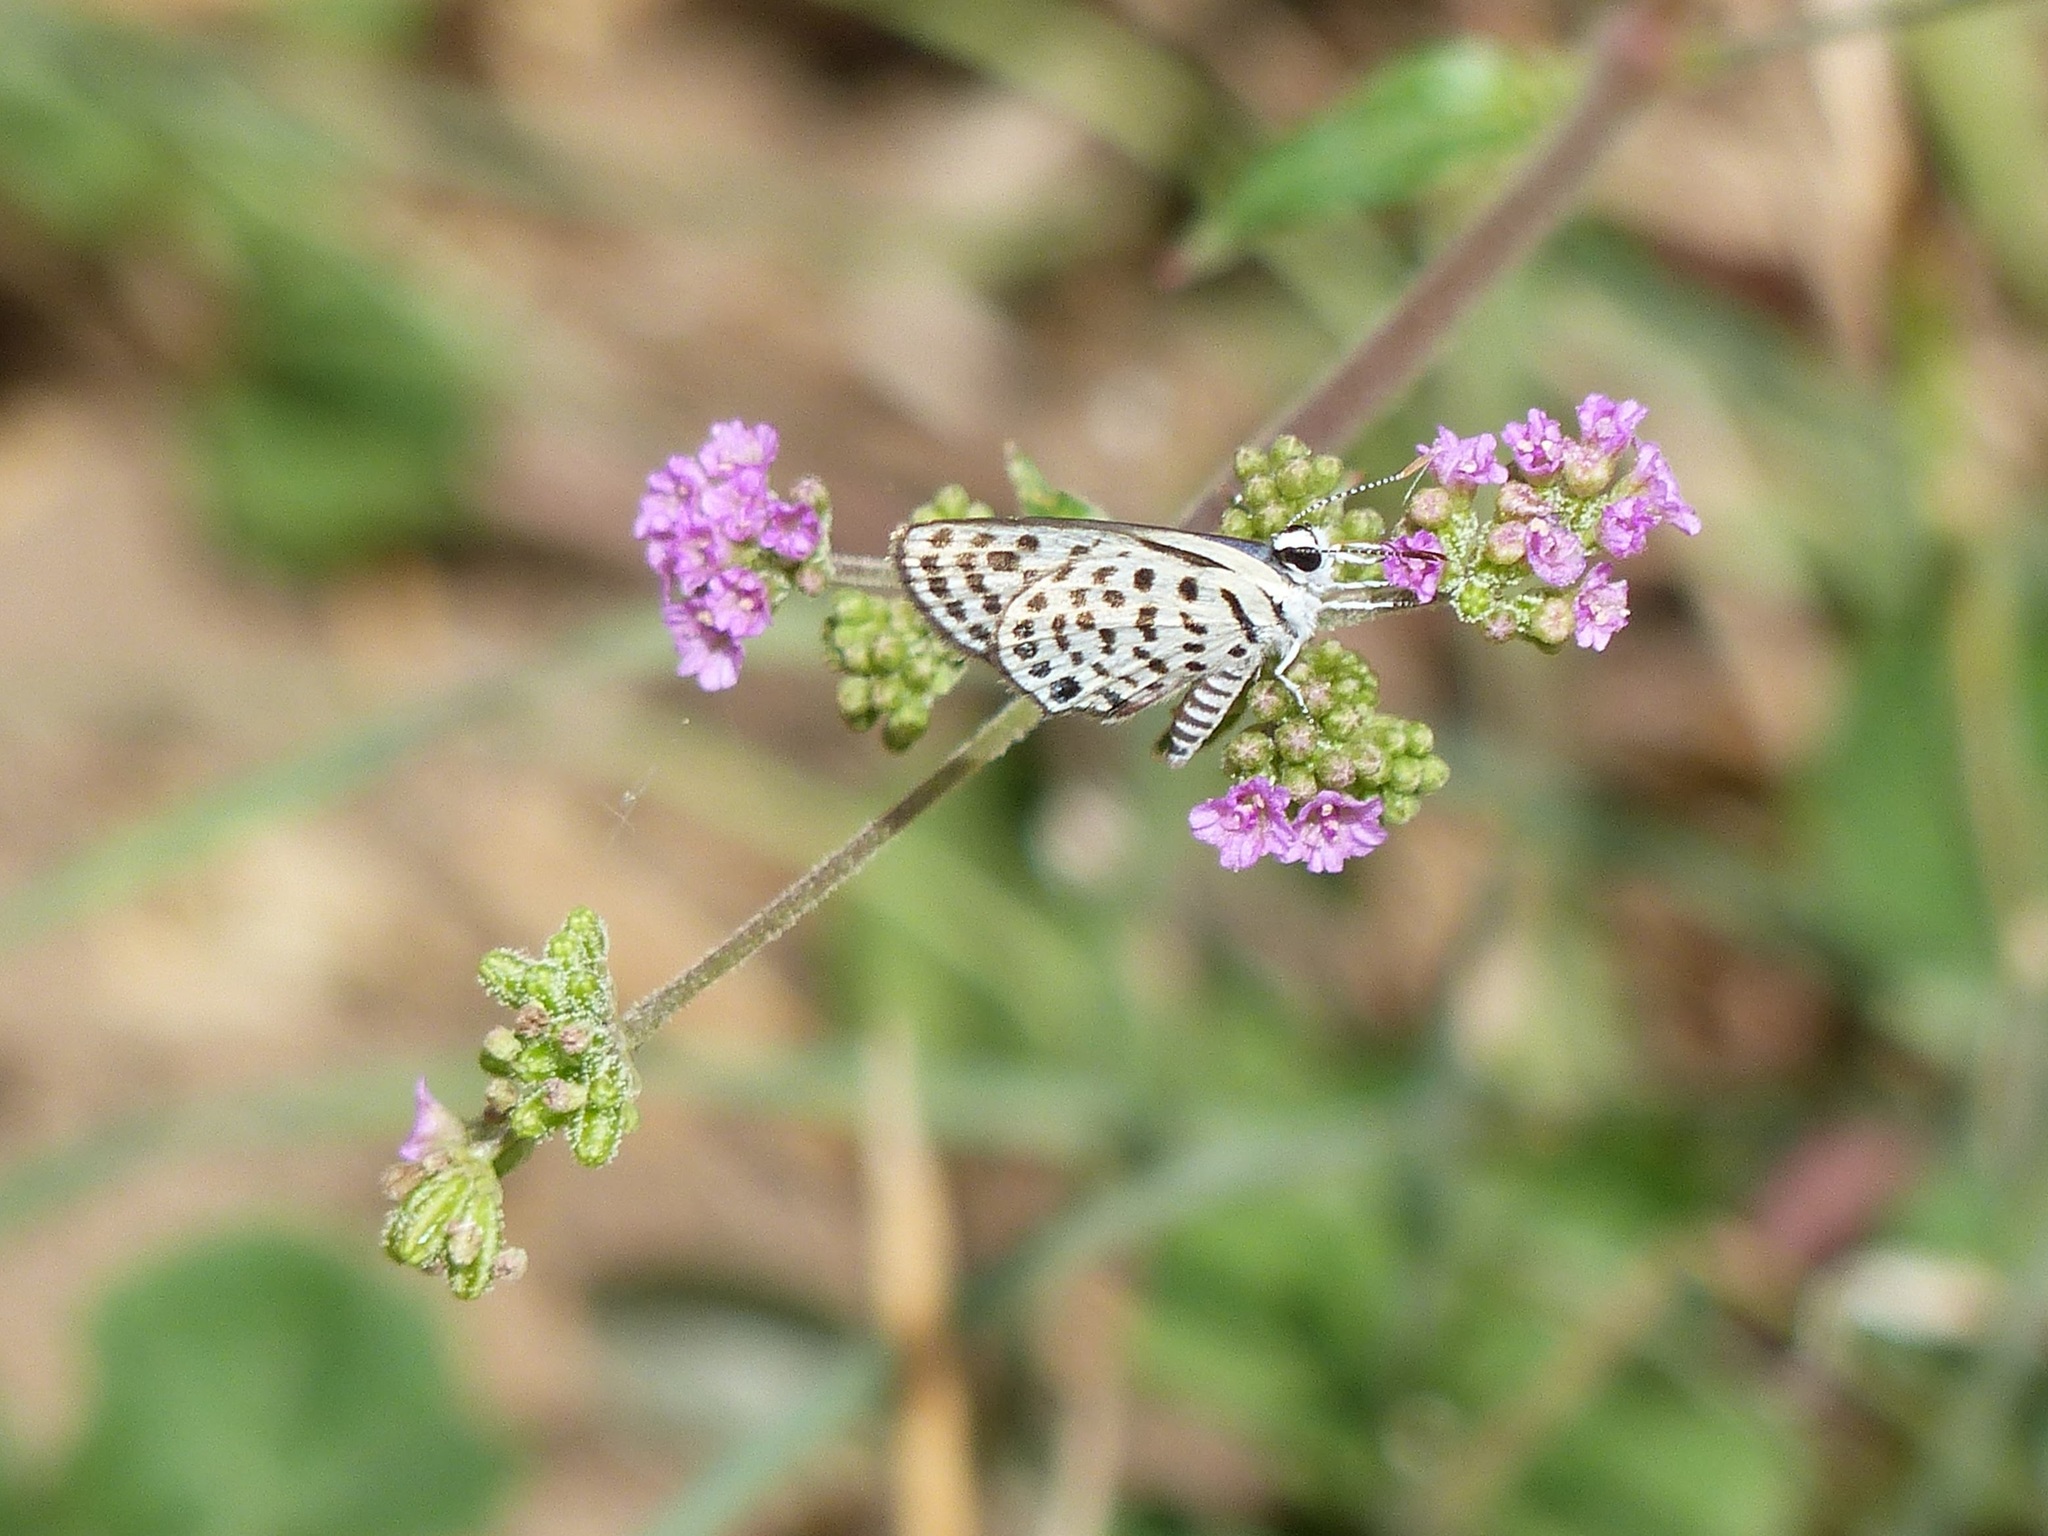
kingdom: Plantae
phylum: Tracheophyta
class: Magnoliopsida
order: Caryophyllales
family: Nyctaginaceae
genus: Boerhavia
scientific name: Boerhavia diffusa
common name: Red spiderling
